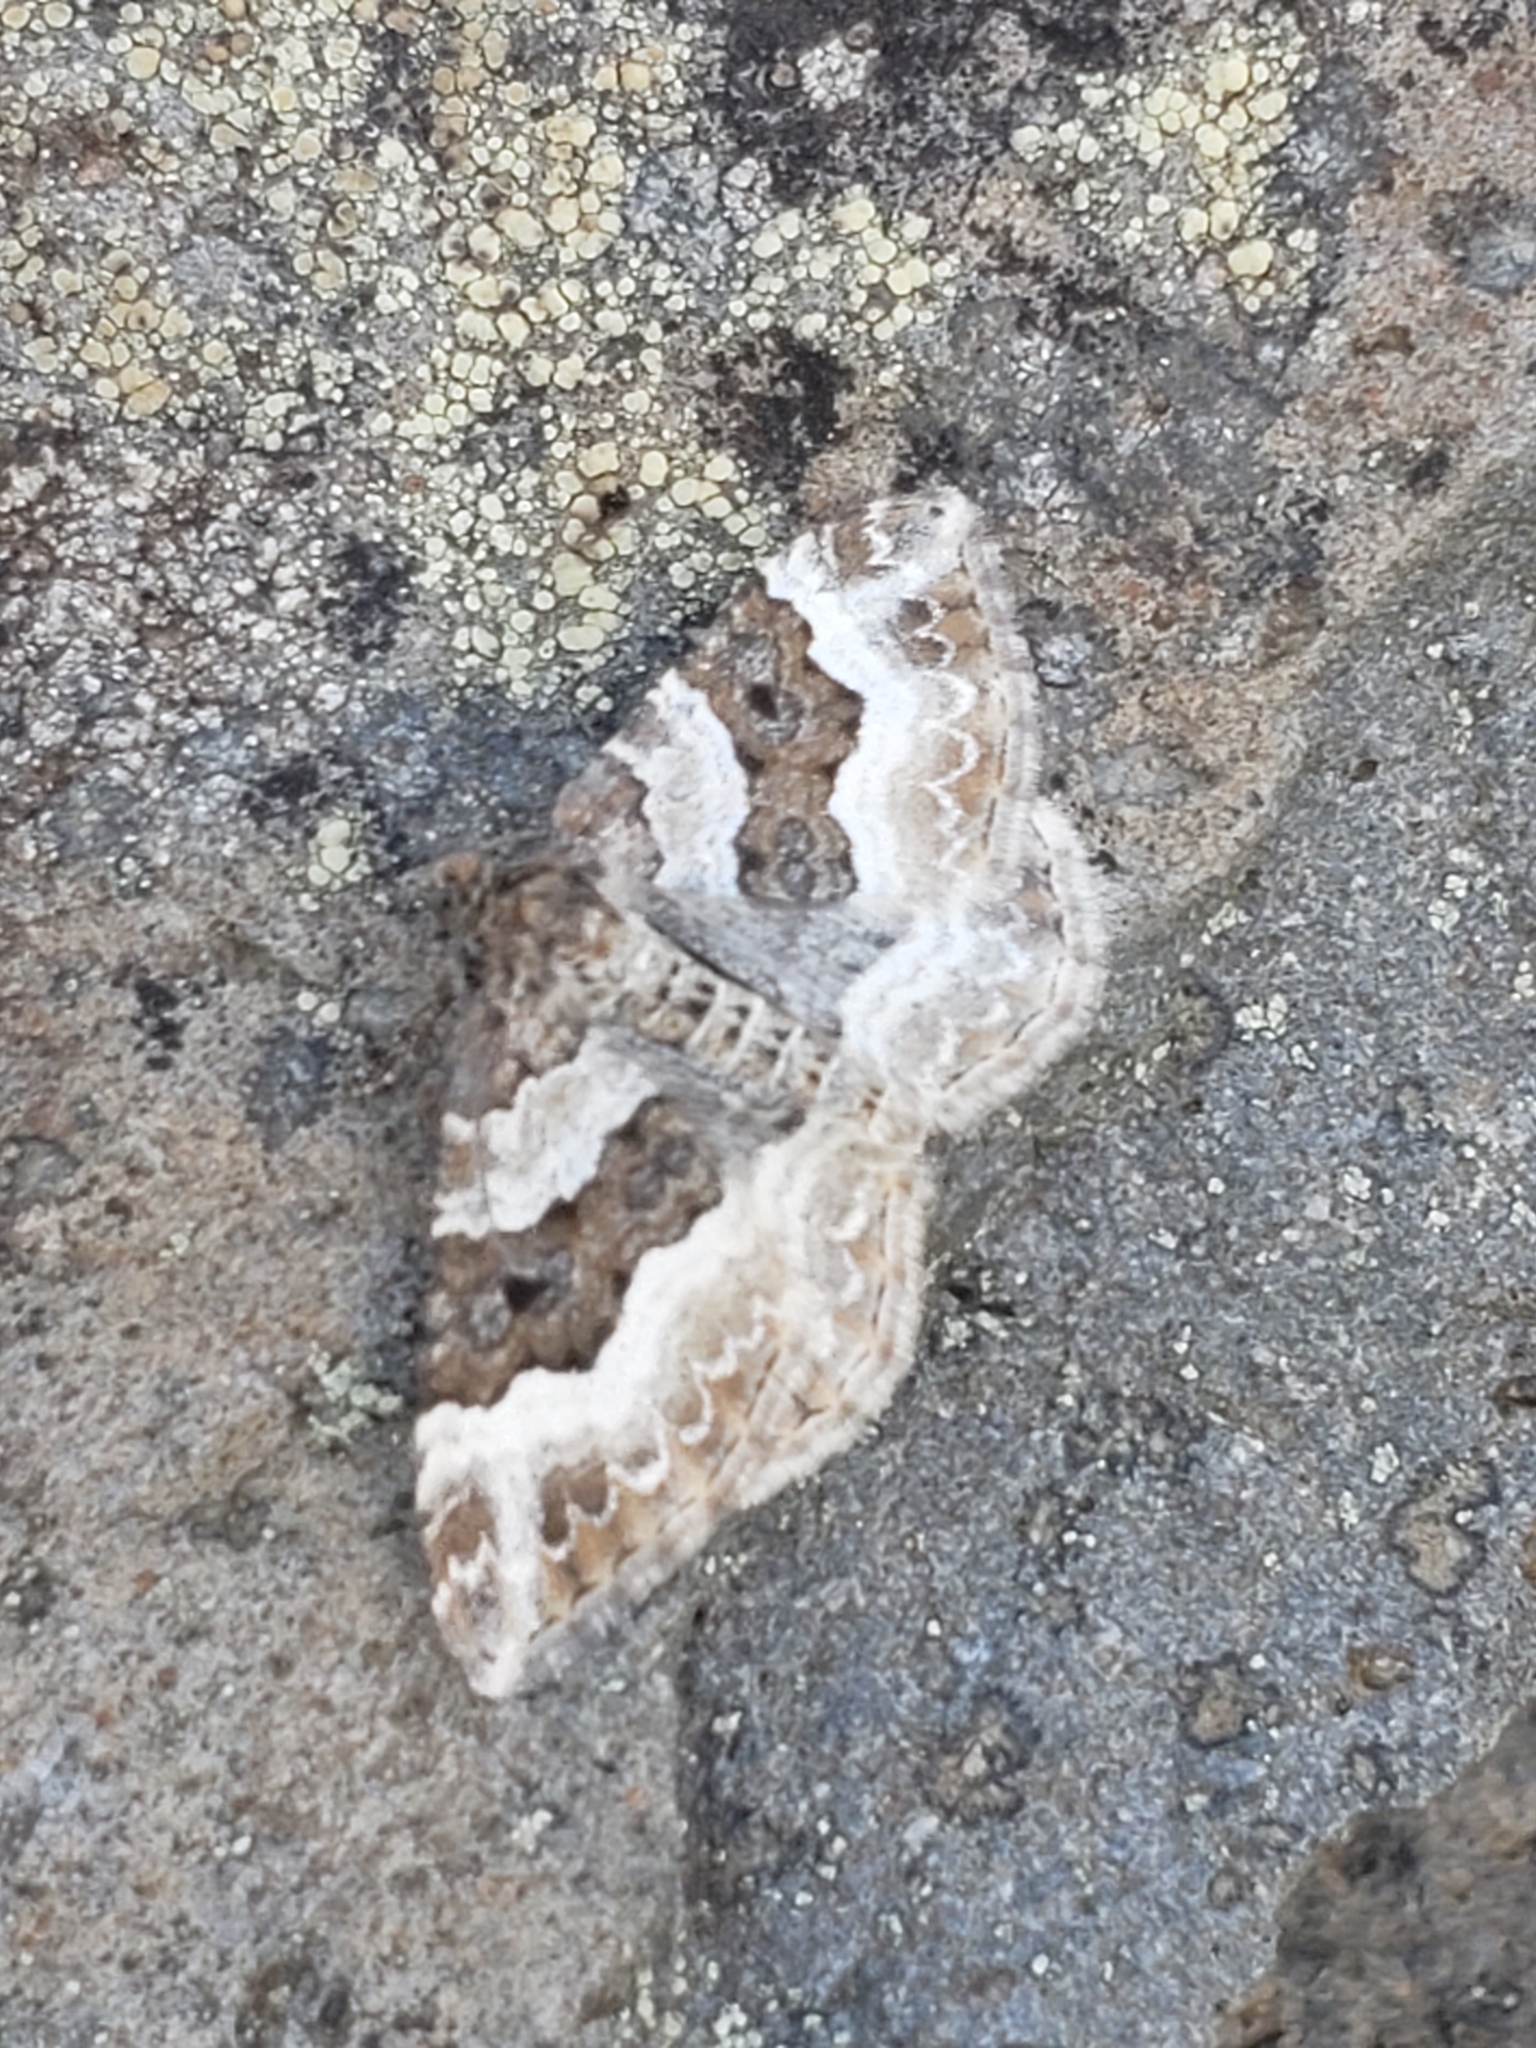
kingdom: Animalia
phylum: Arthropoda
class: Insecta
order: Lepidoptera
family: Geometridae
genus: Epirrhoe
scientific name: Epirrhoe alternata
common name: Common carpet
